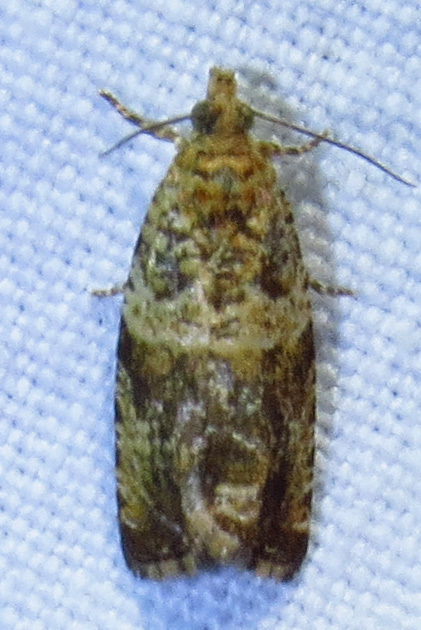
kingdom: Animalia
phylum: Arthropoda
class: Insecta
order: Lepidoptera
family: Tortricidae
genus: Celypha
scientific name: Celypha cespitana
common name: Thyme marble
